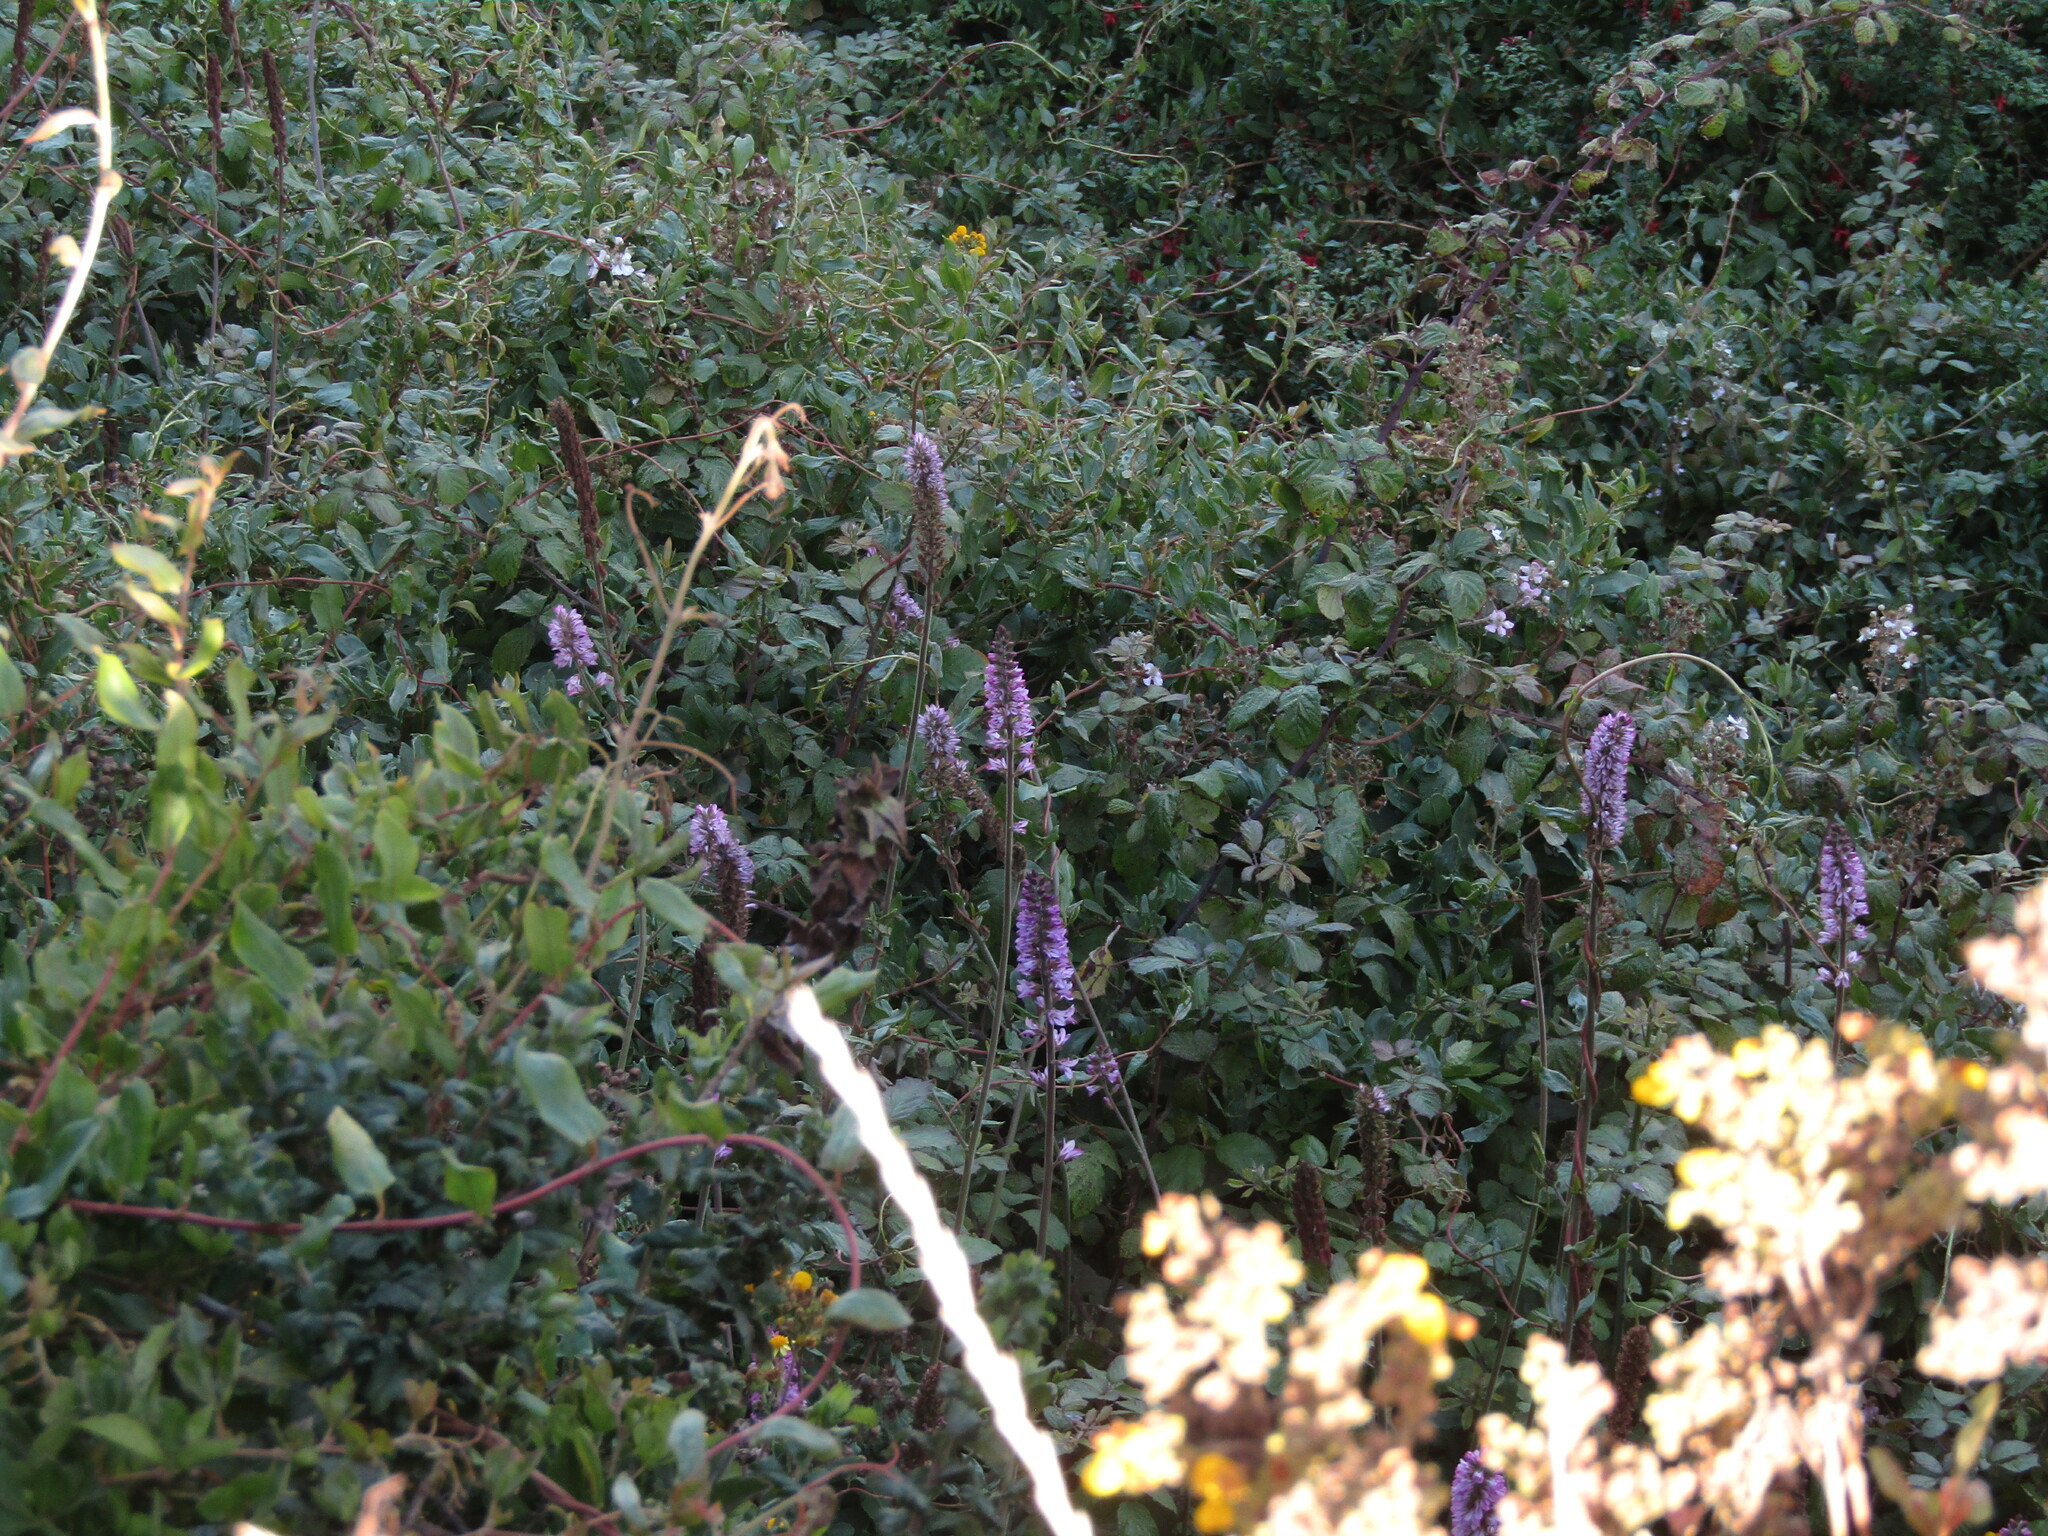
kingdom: Plantae
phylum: Tracheophyta
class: Magnoliopsida
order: Geraniales
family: Francoaceae
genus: Francoa
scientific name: Francoa appendiculata
